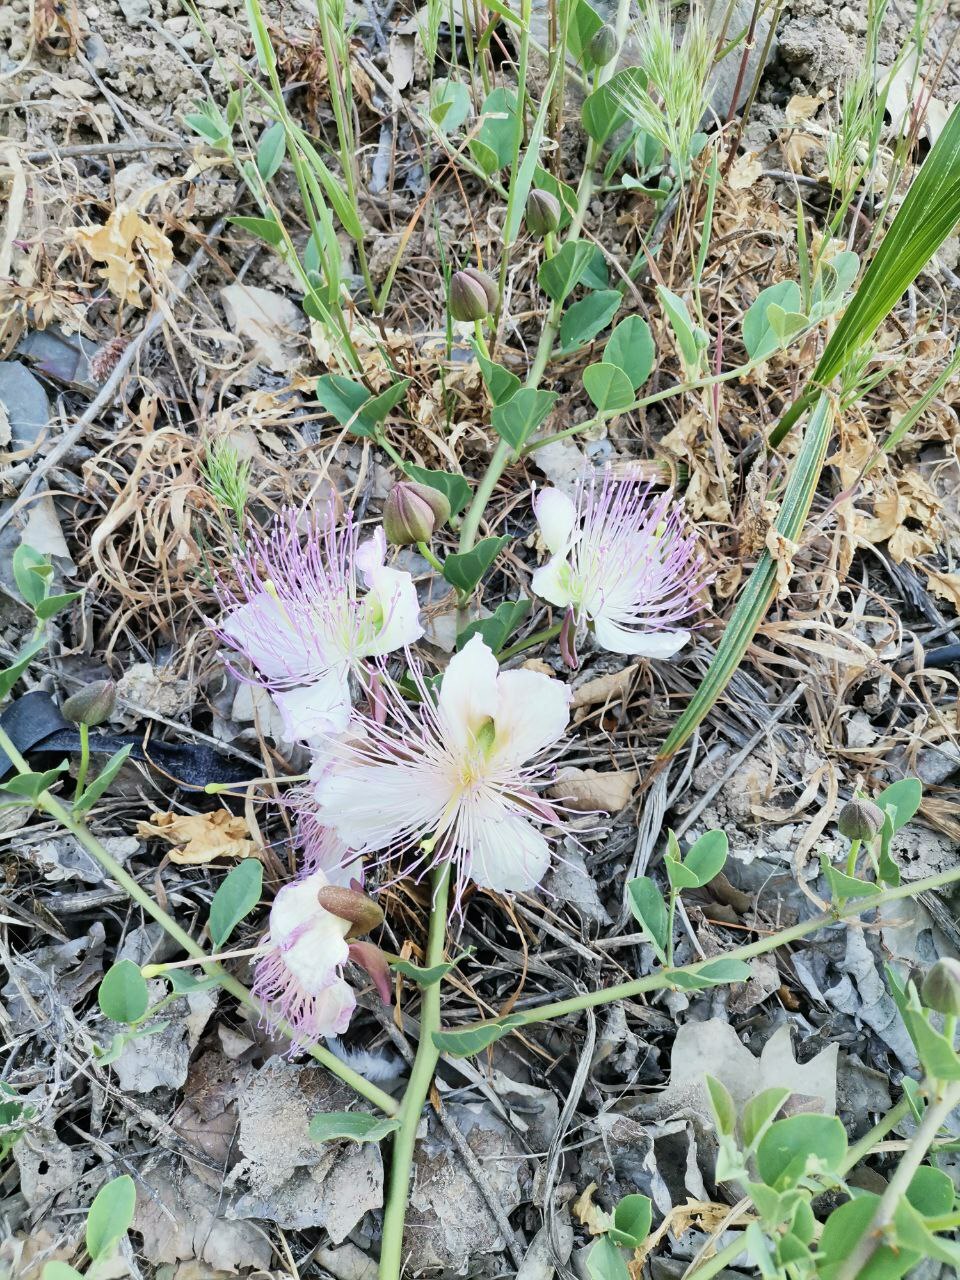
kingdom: Plantae
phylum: Tracheophyta
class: Magnoliopsida
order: Brassicales
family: Capparaceae
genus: Capparis
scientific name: Capparis spinosa
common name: Caper
